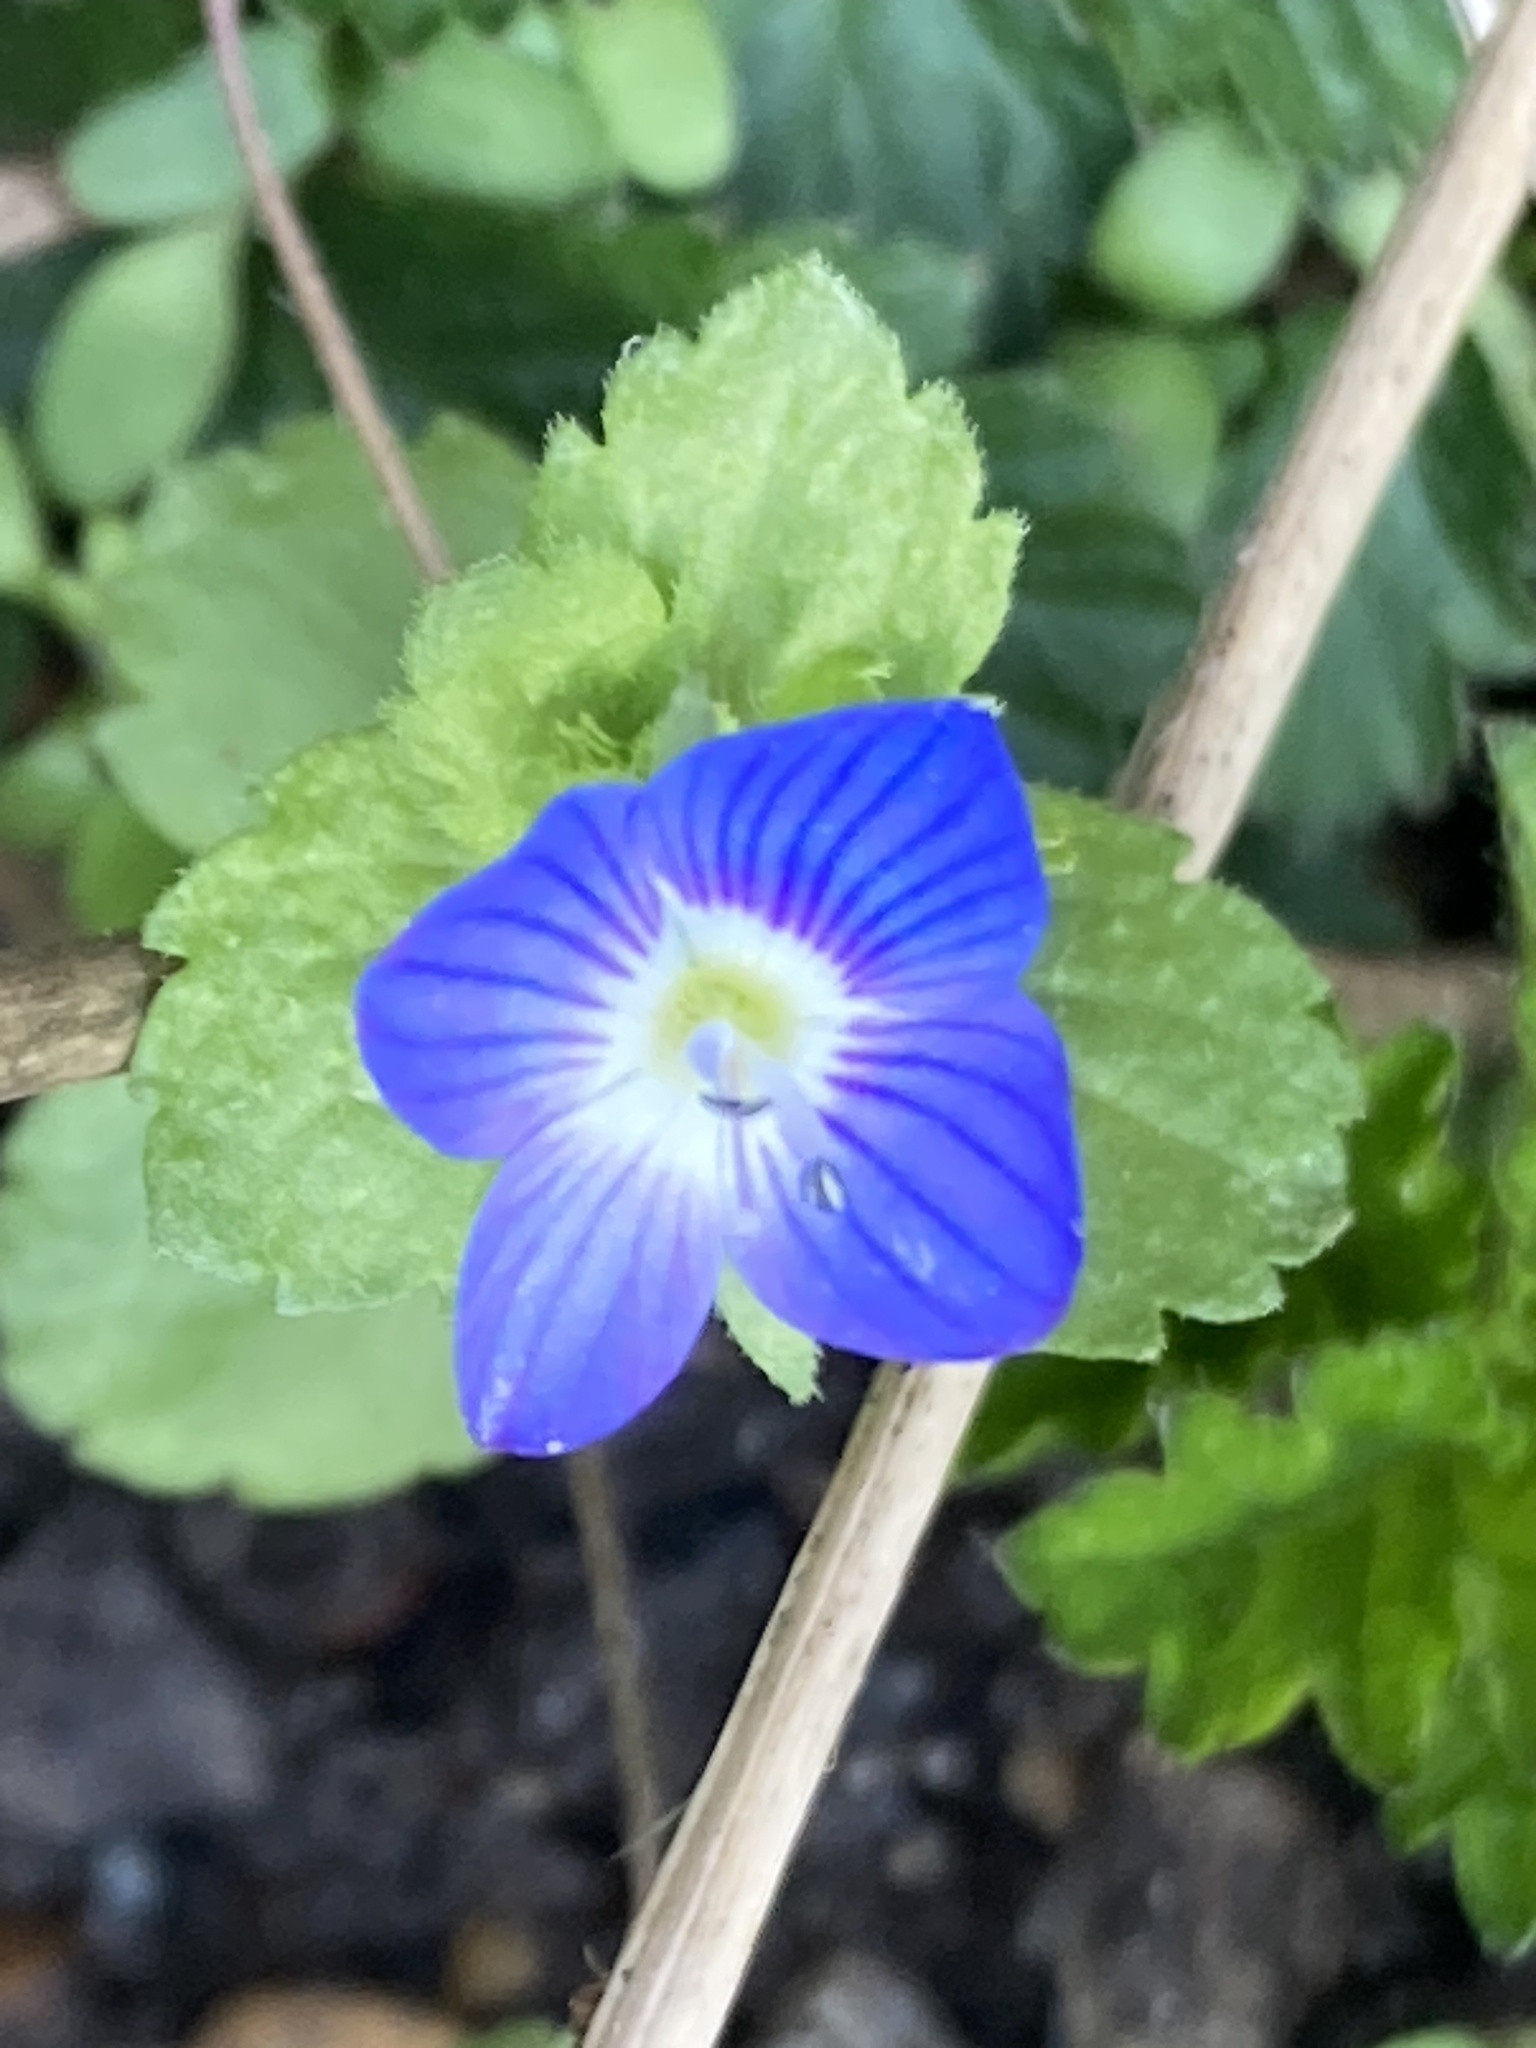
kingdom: Plantae
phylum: Tracheophyta
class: Magnoliopsida
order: Lamiales
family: Plantaginaceae
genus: Veronica
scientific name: Veronica persica
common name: Common field-speedwell
